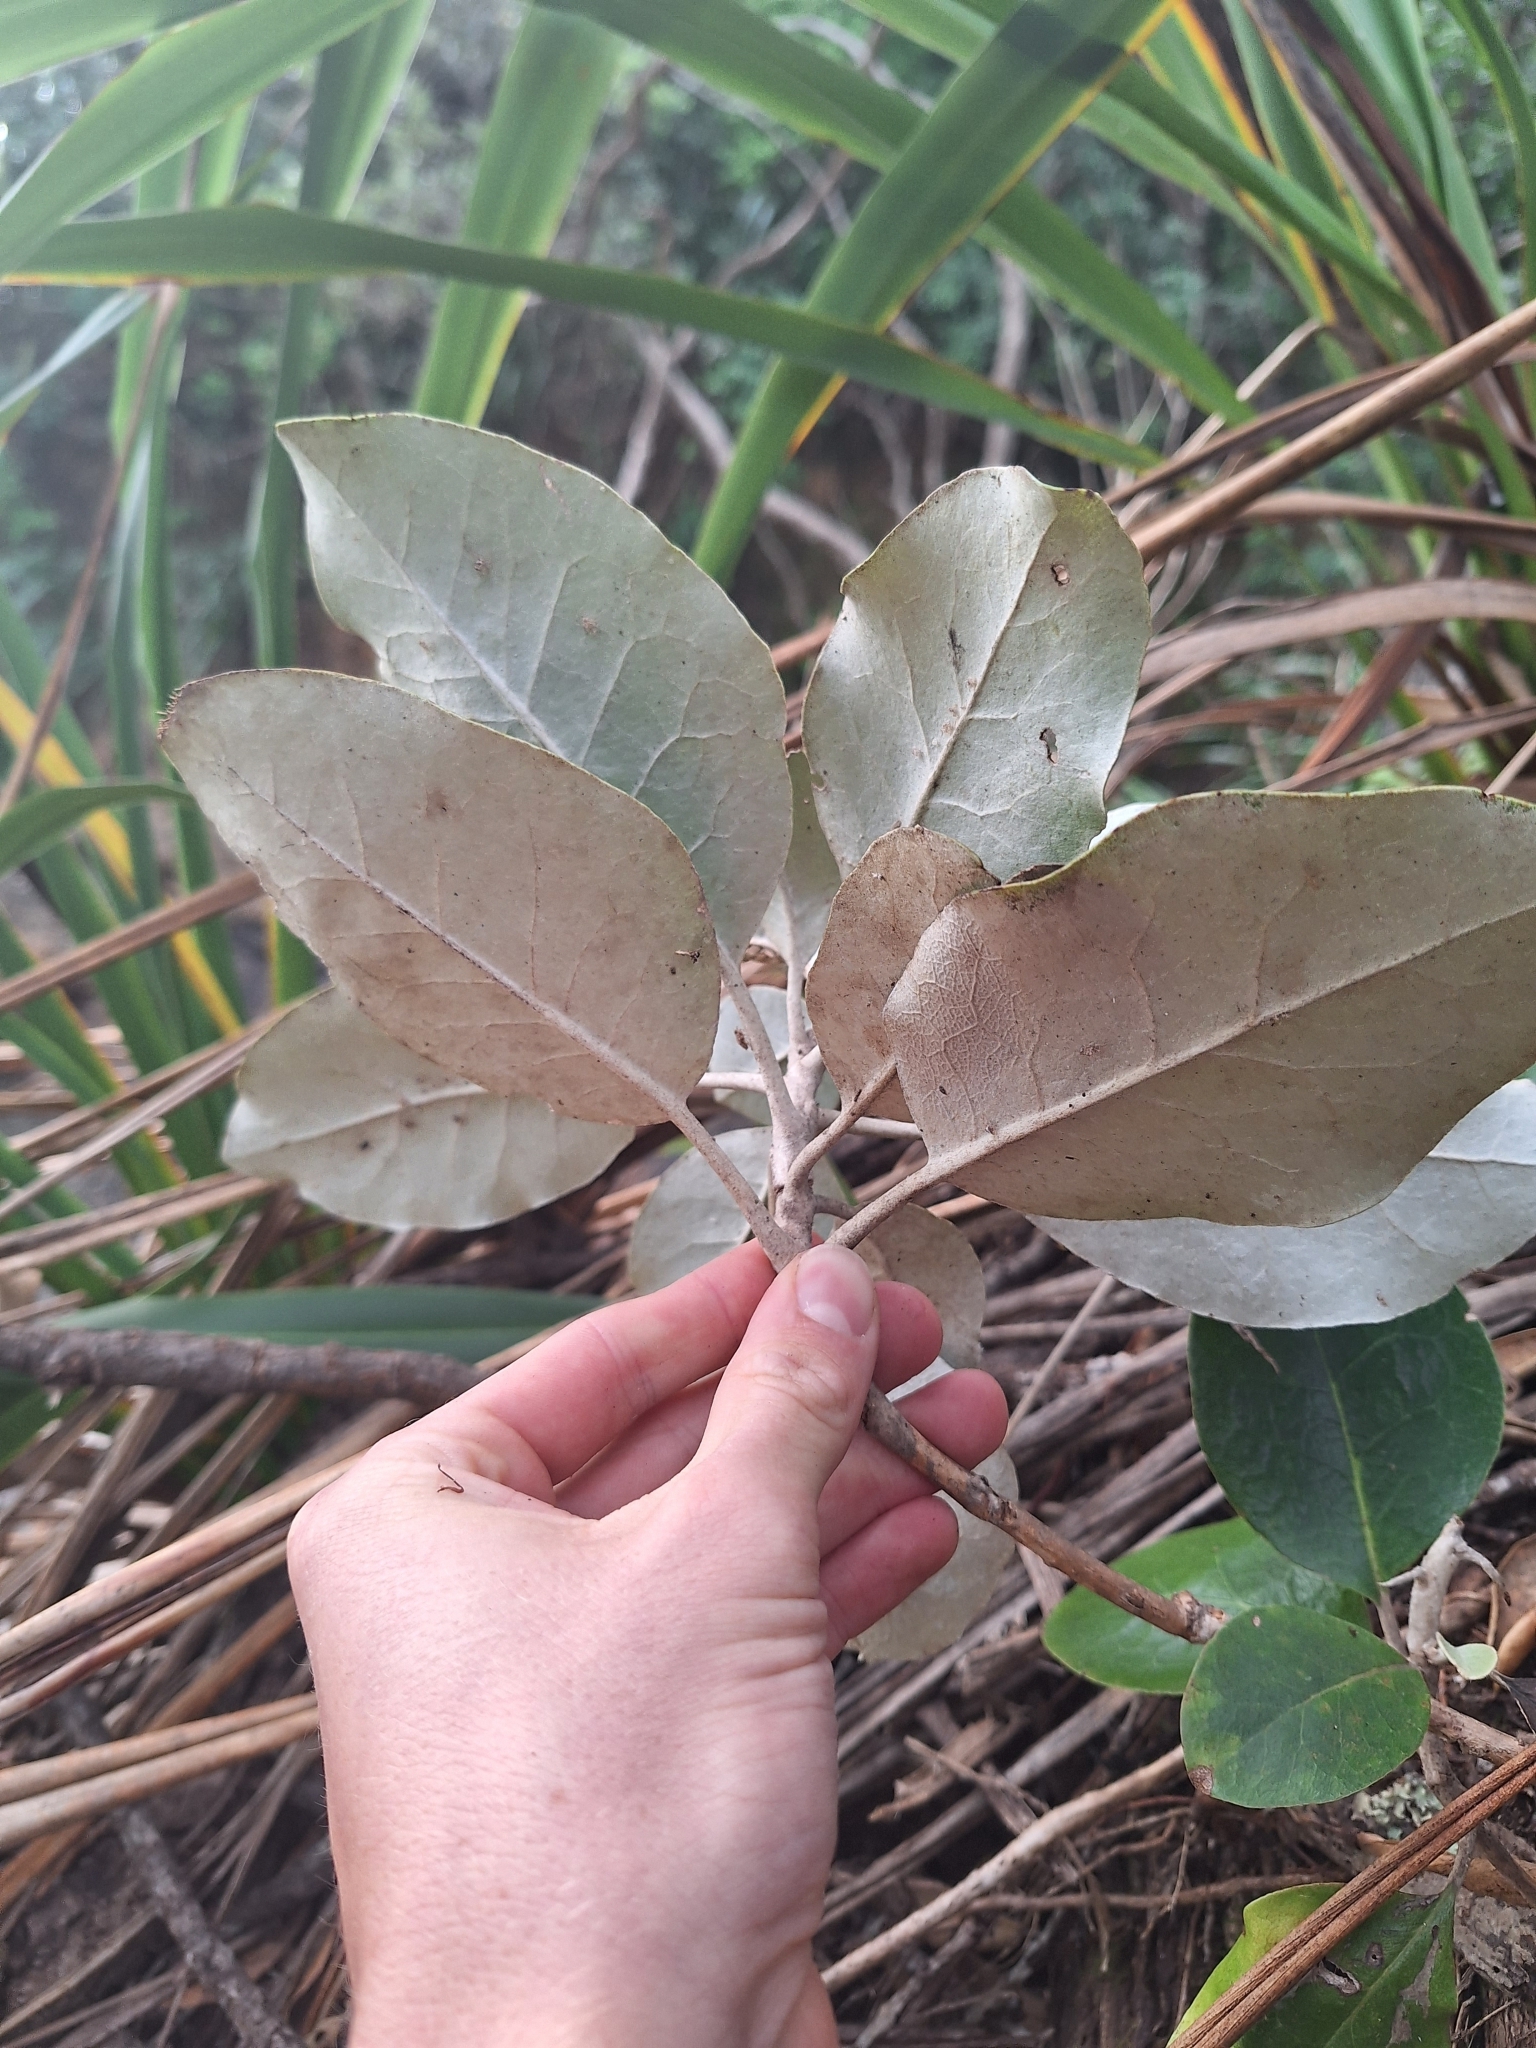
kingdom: Plantae
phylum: Tracheophyta
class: Magnoliopsida
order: Asterales
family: Asteraceae
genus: Olearia
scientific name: Olearia pachyphylla
